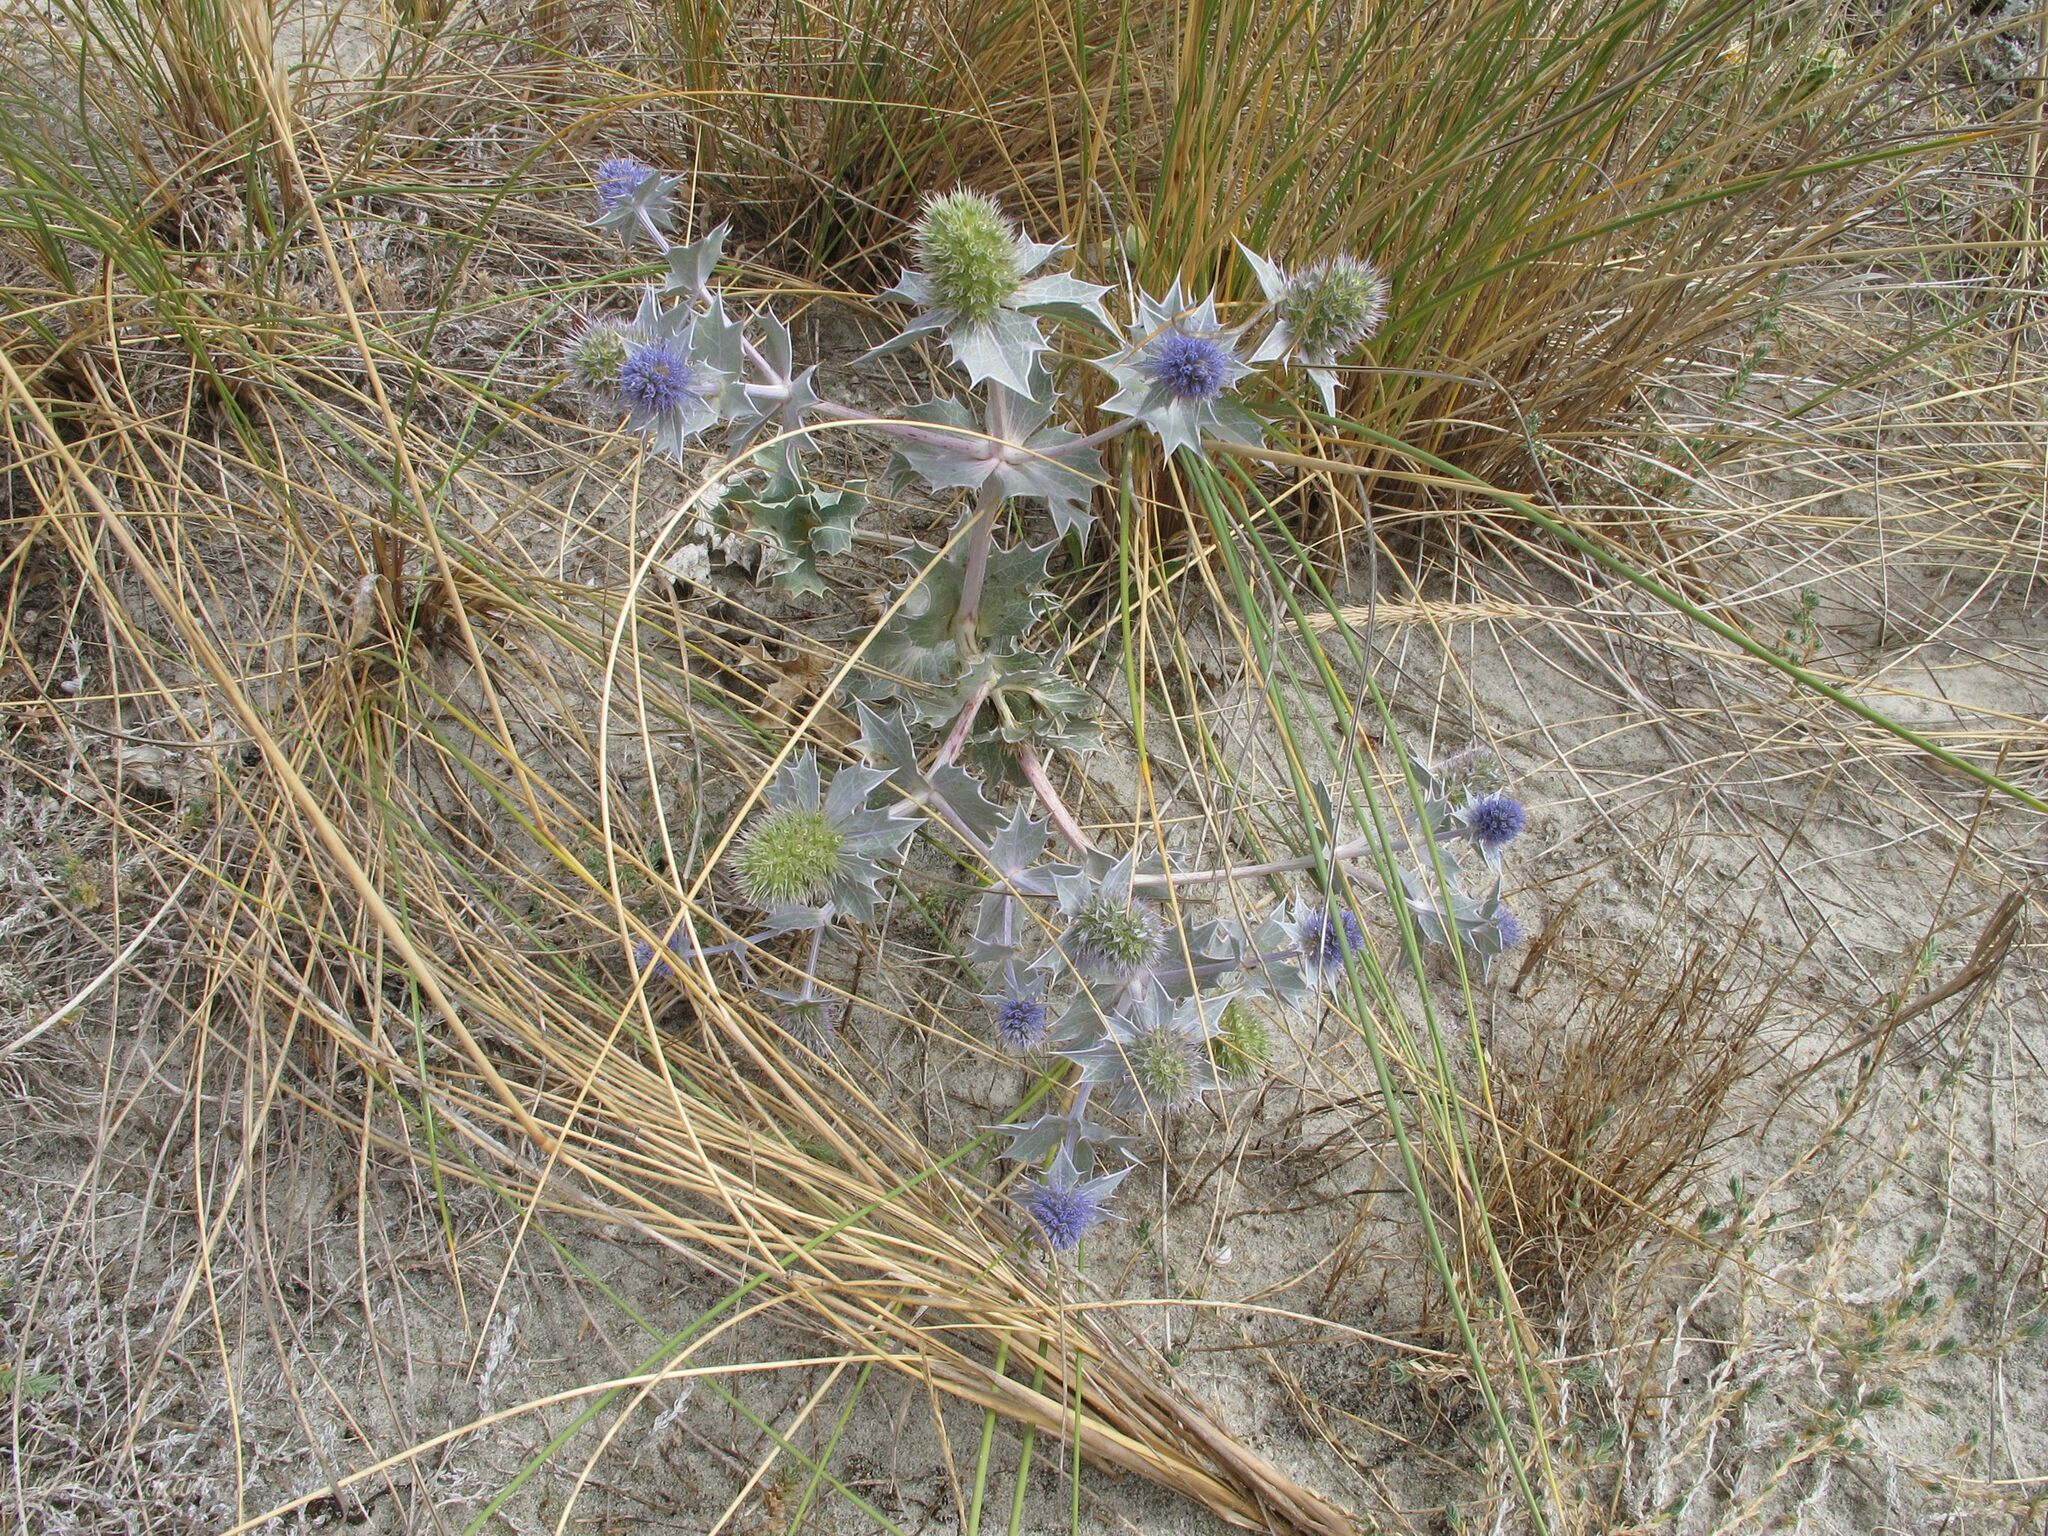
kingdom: Plantae
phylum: Tracheophyta
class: Magnoliopsida
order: Apiales
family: Apiaceae
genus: Eryngium
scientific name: Eryngium maritimum
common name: Sea-holly
